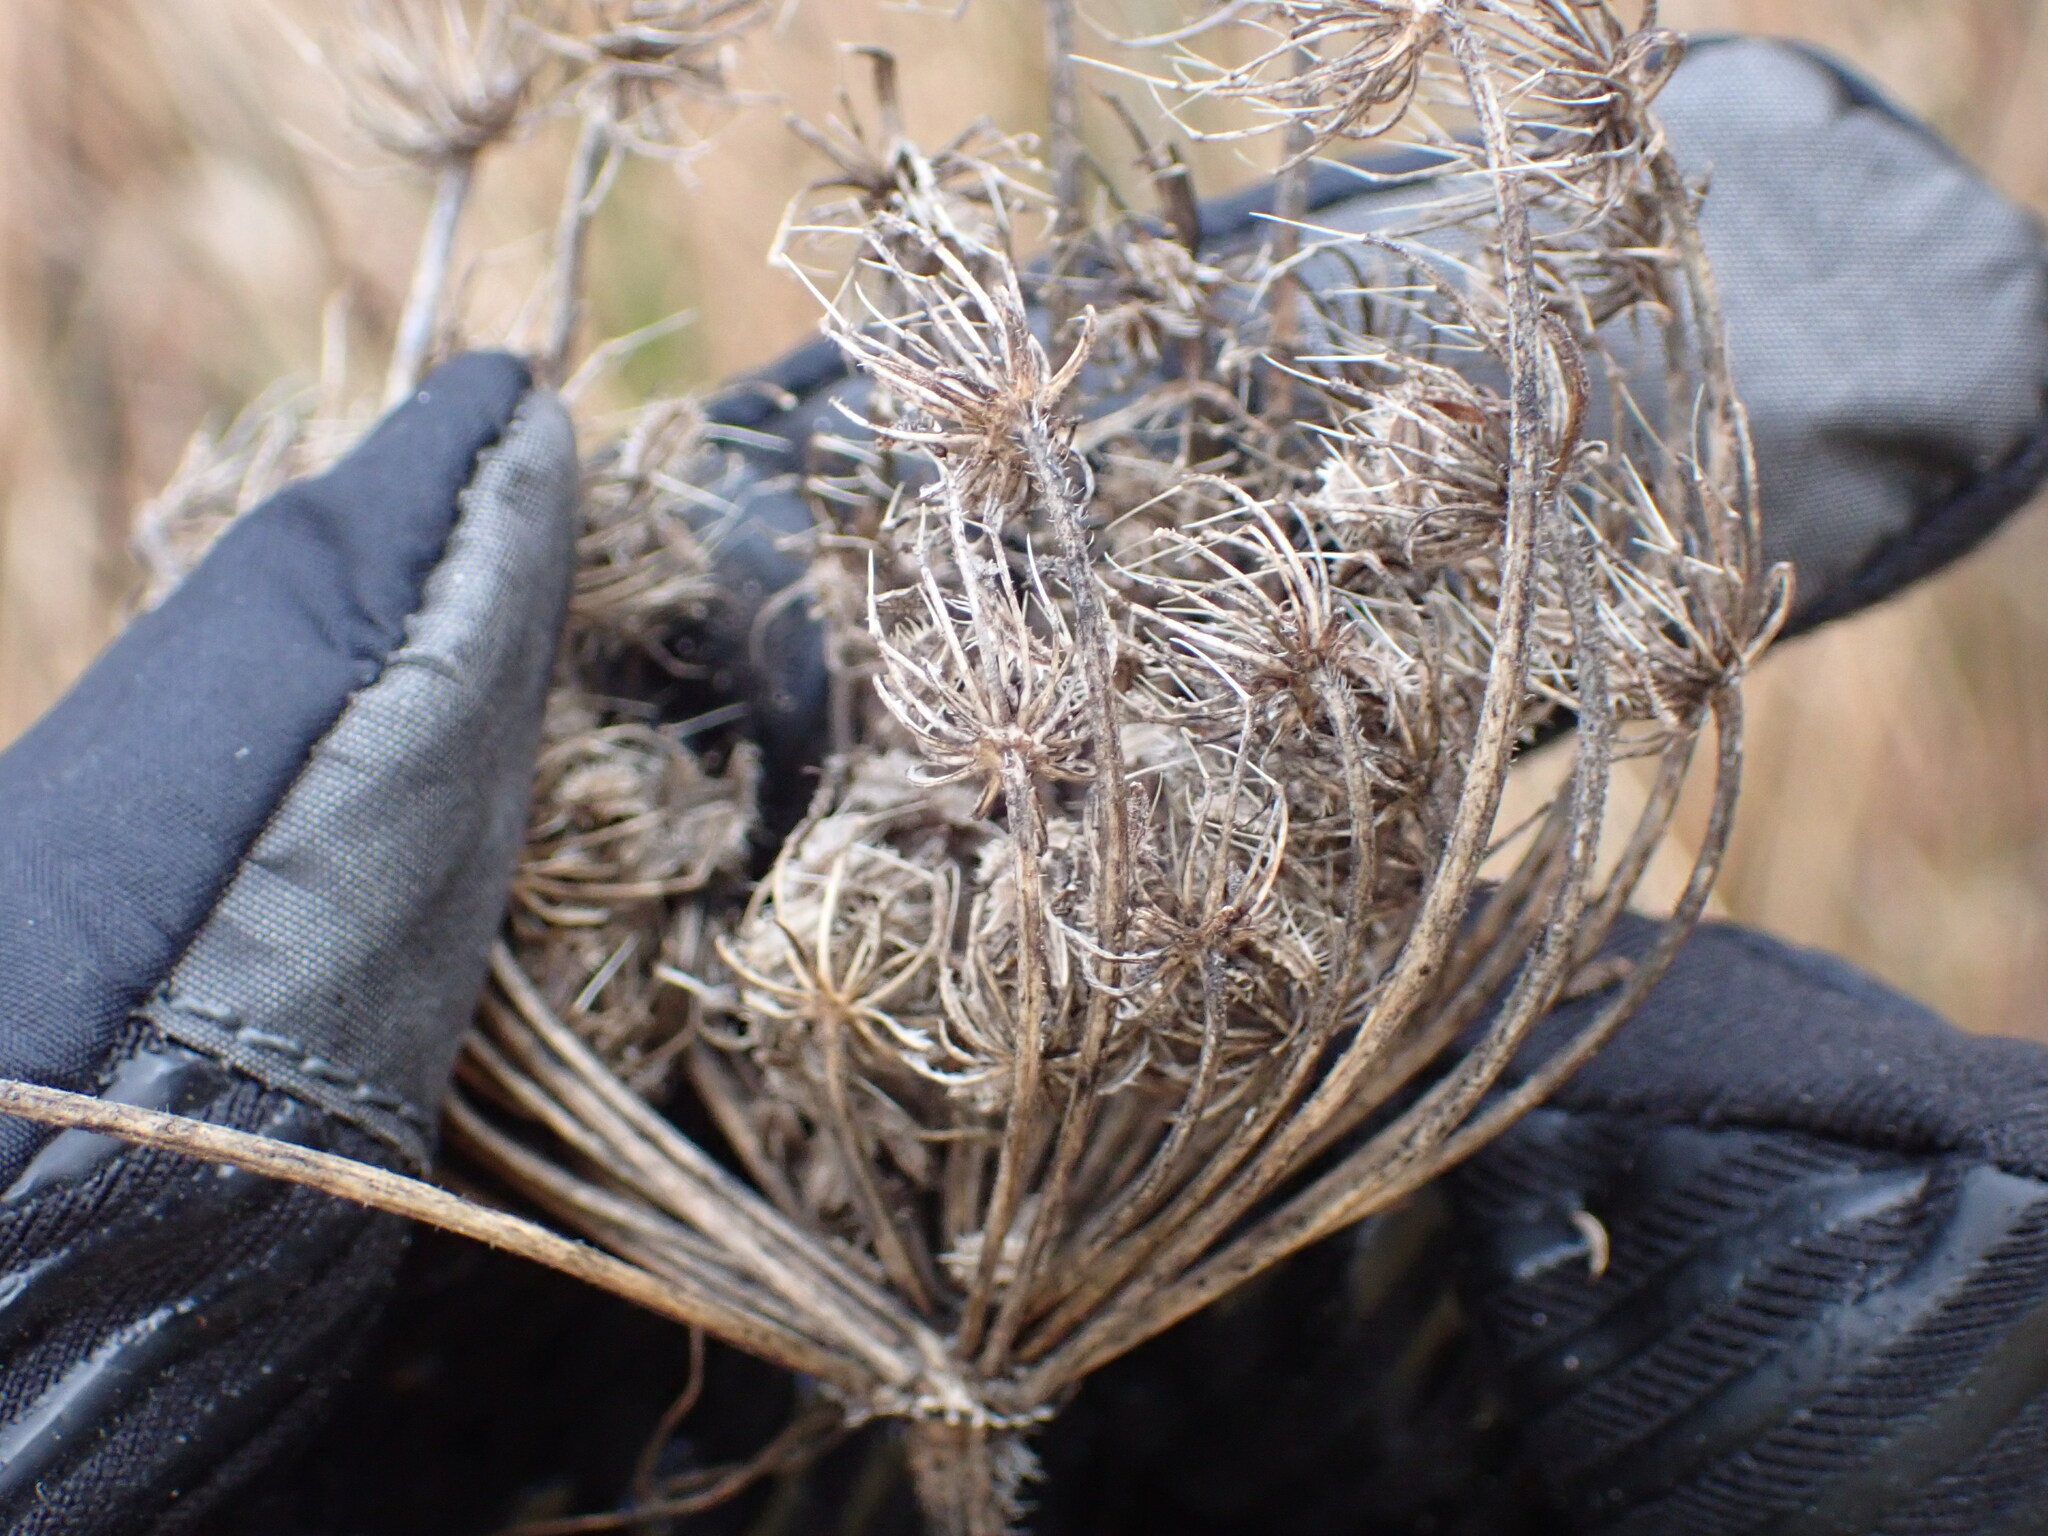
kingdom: Plantae
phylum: Tracheophyta
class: Magnoliopsida
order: Apiales
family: Apiaceae
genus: Daucus
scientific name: Daucus carota
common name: Wild carrot
